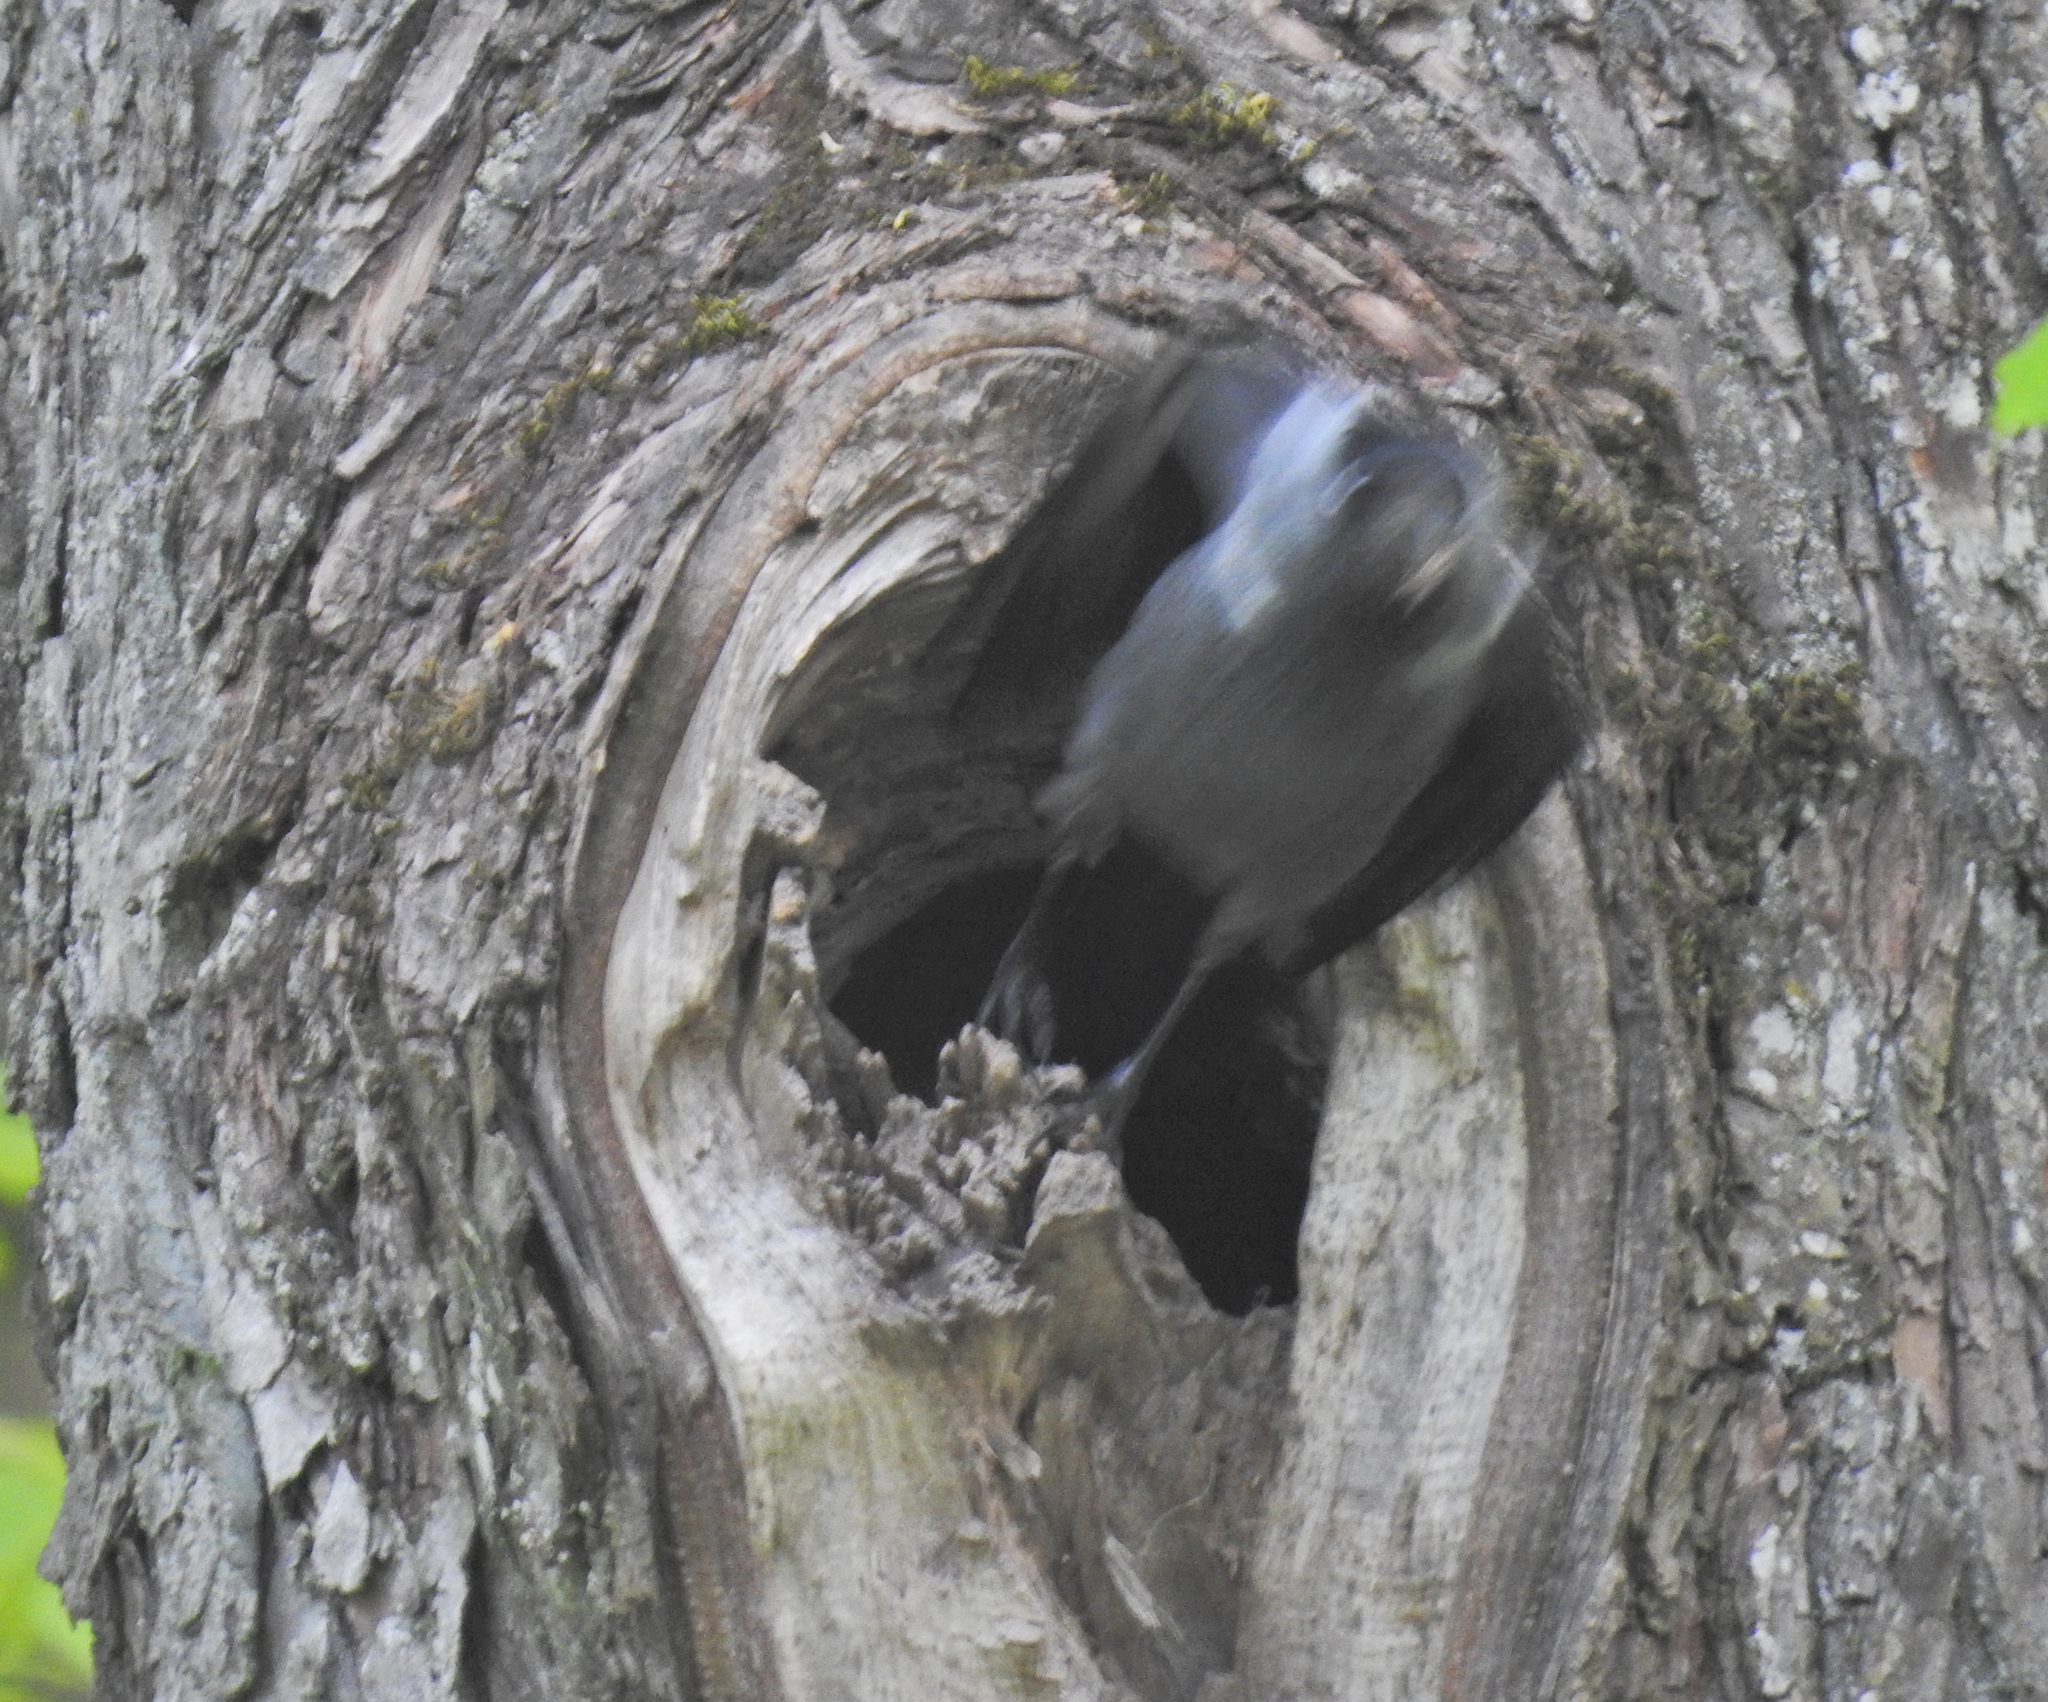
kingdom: Animalia
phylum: Chordata
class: Aves
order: Passeriformes
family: Corvidae
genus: Coloeus
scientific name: Coloeus monedula
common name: Western jackdaw
